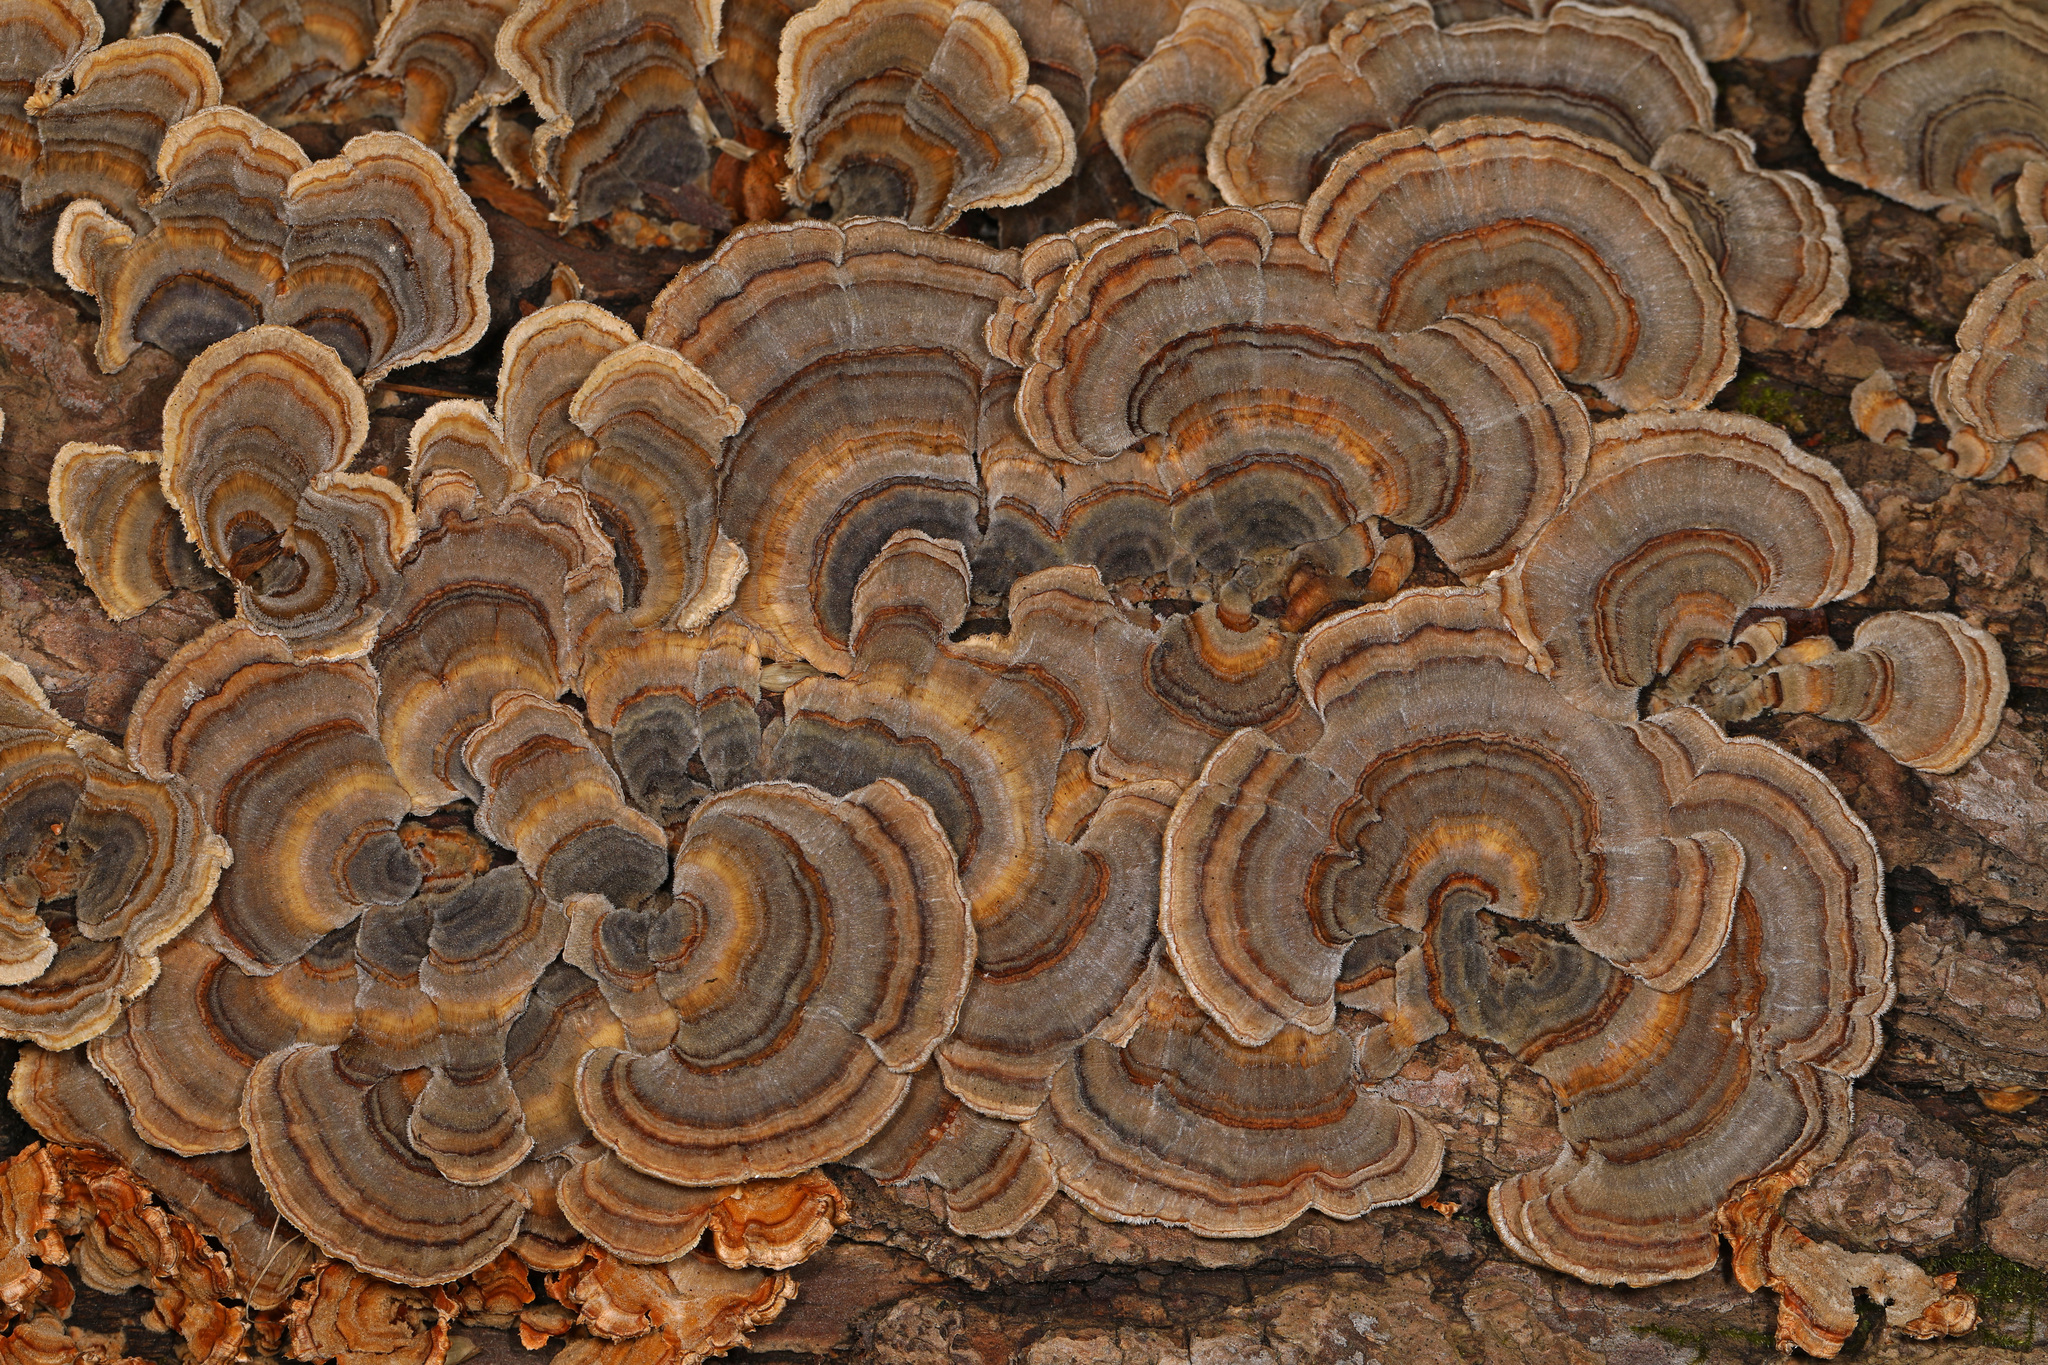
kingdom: Fungi
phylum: Basidiomycota
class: Agaricomycetes
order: Polyporales
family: Polyporaceae
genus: Trametes
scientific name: Trametes versicolor
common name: Turkeytail
